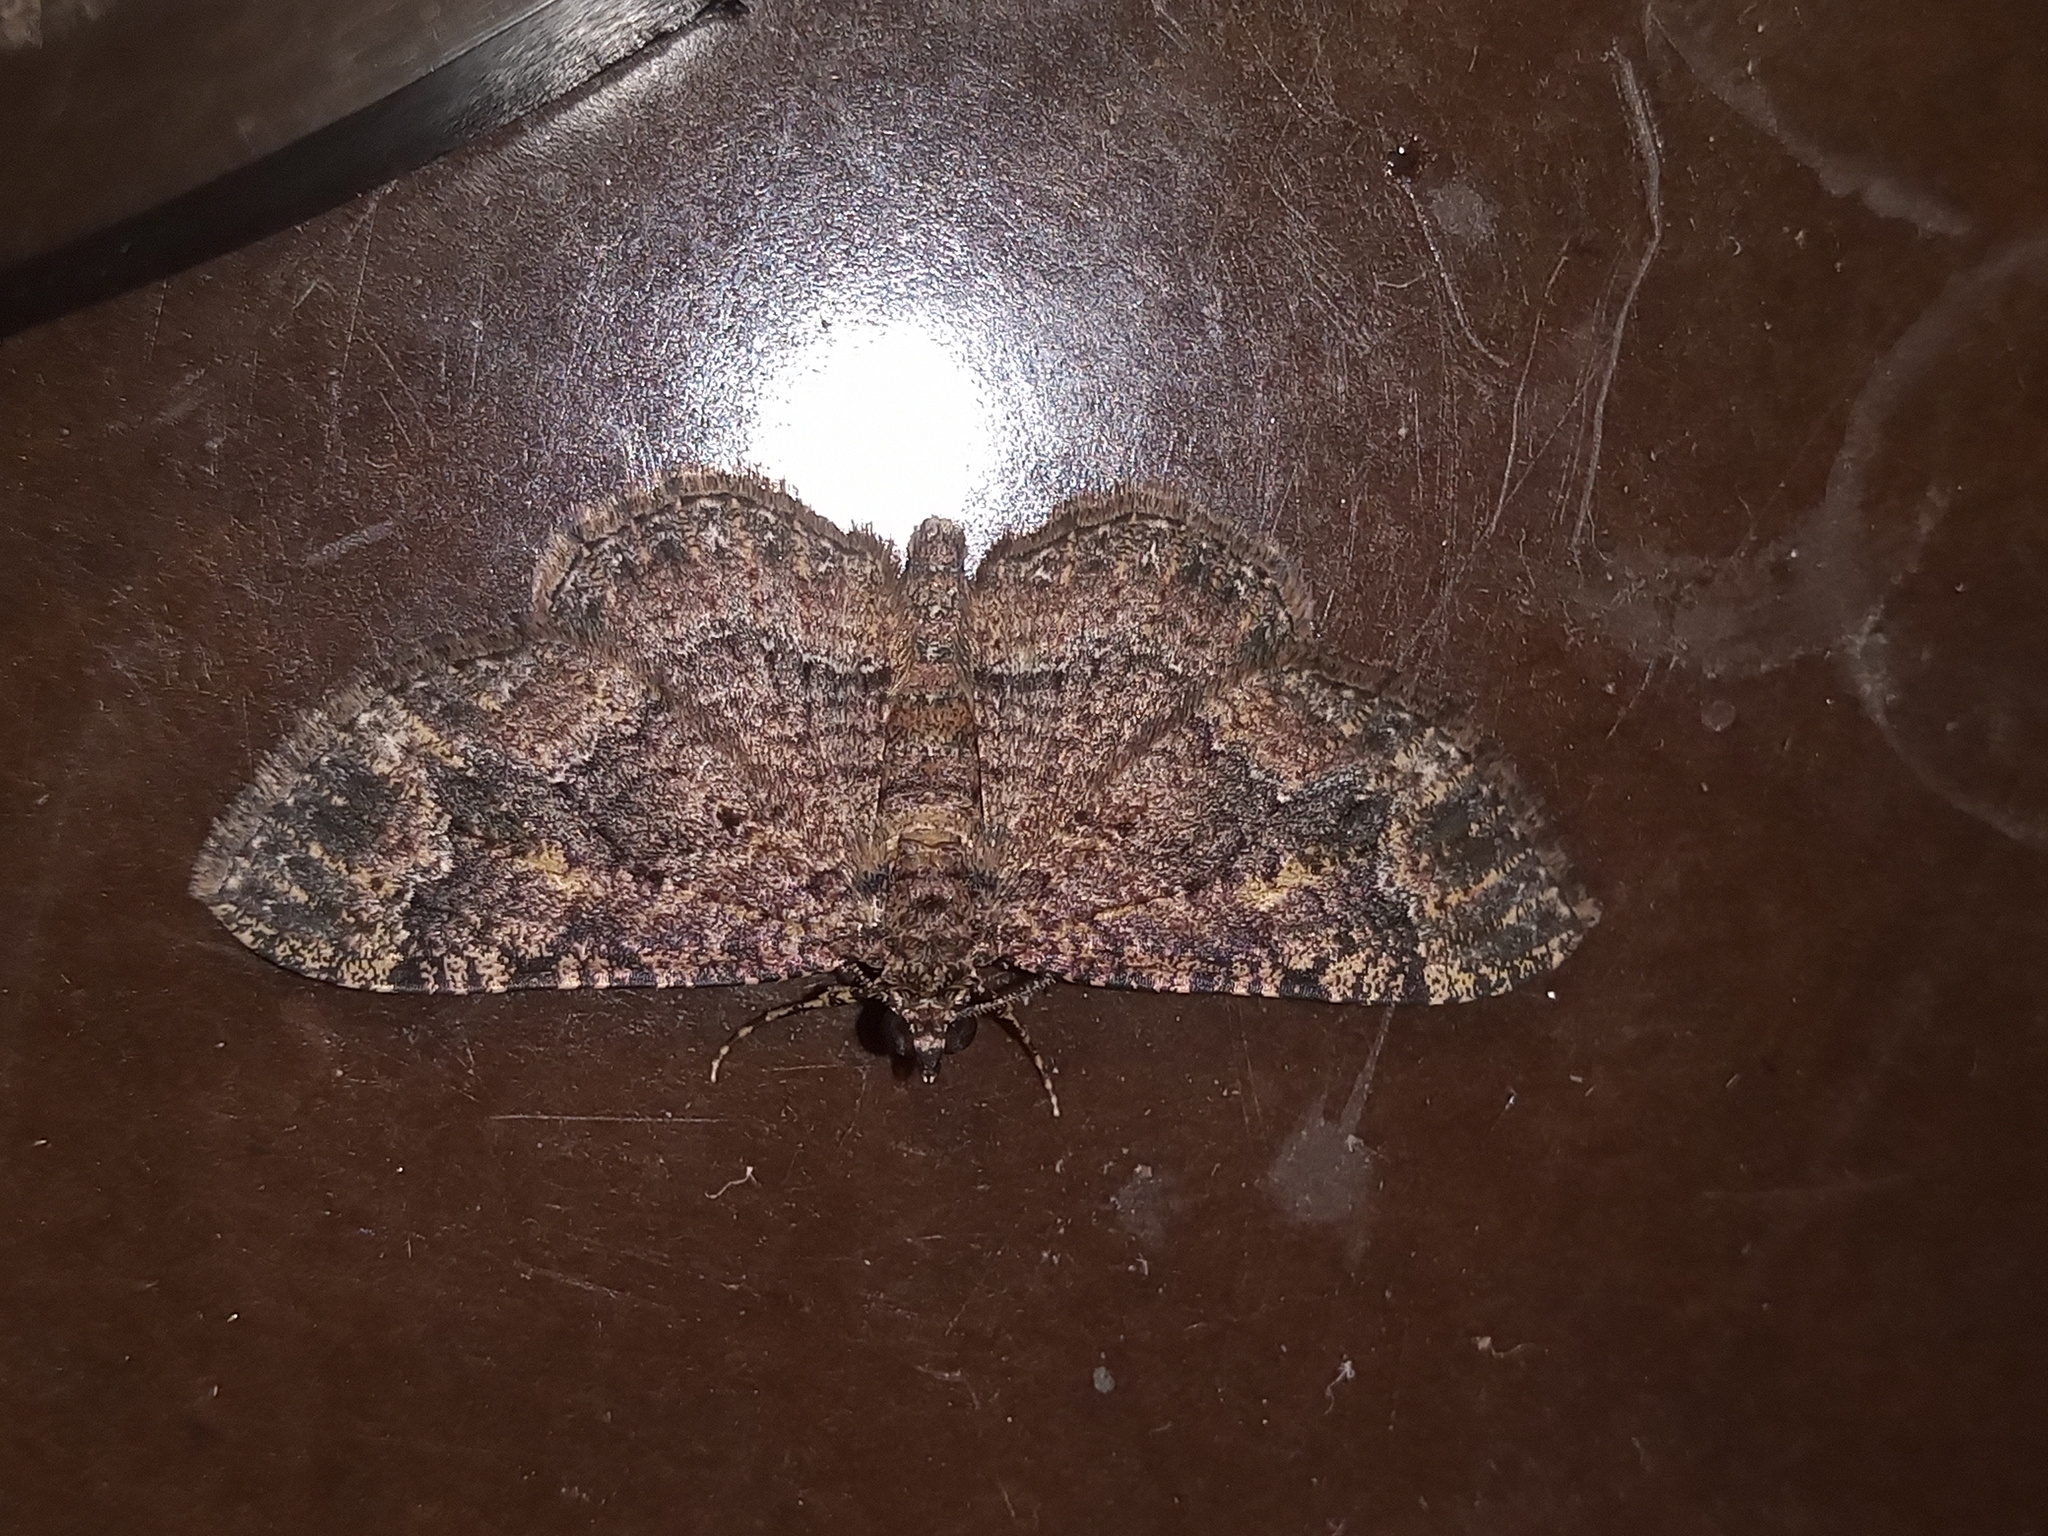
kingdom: Animalia
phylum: Arthropoda
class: Insecta
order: Lepidoptera
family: Geometridae
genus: Disclisioprocta
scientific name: Disclisioprocta stellata
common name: Somber carpet
